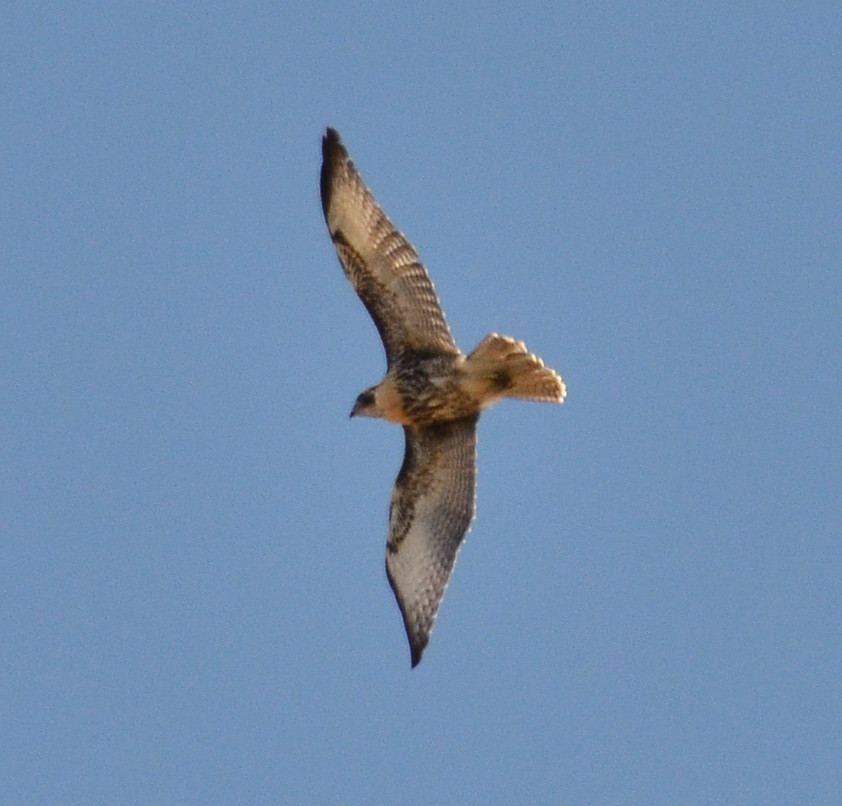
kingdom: Animalia
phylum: Chordata
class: Aves
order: Accipitriformes
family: Accipitridae
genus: Buteo
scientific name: Buteo jamaicensis
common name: Red-tailed hawk
